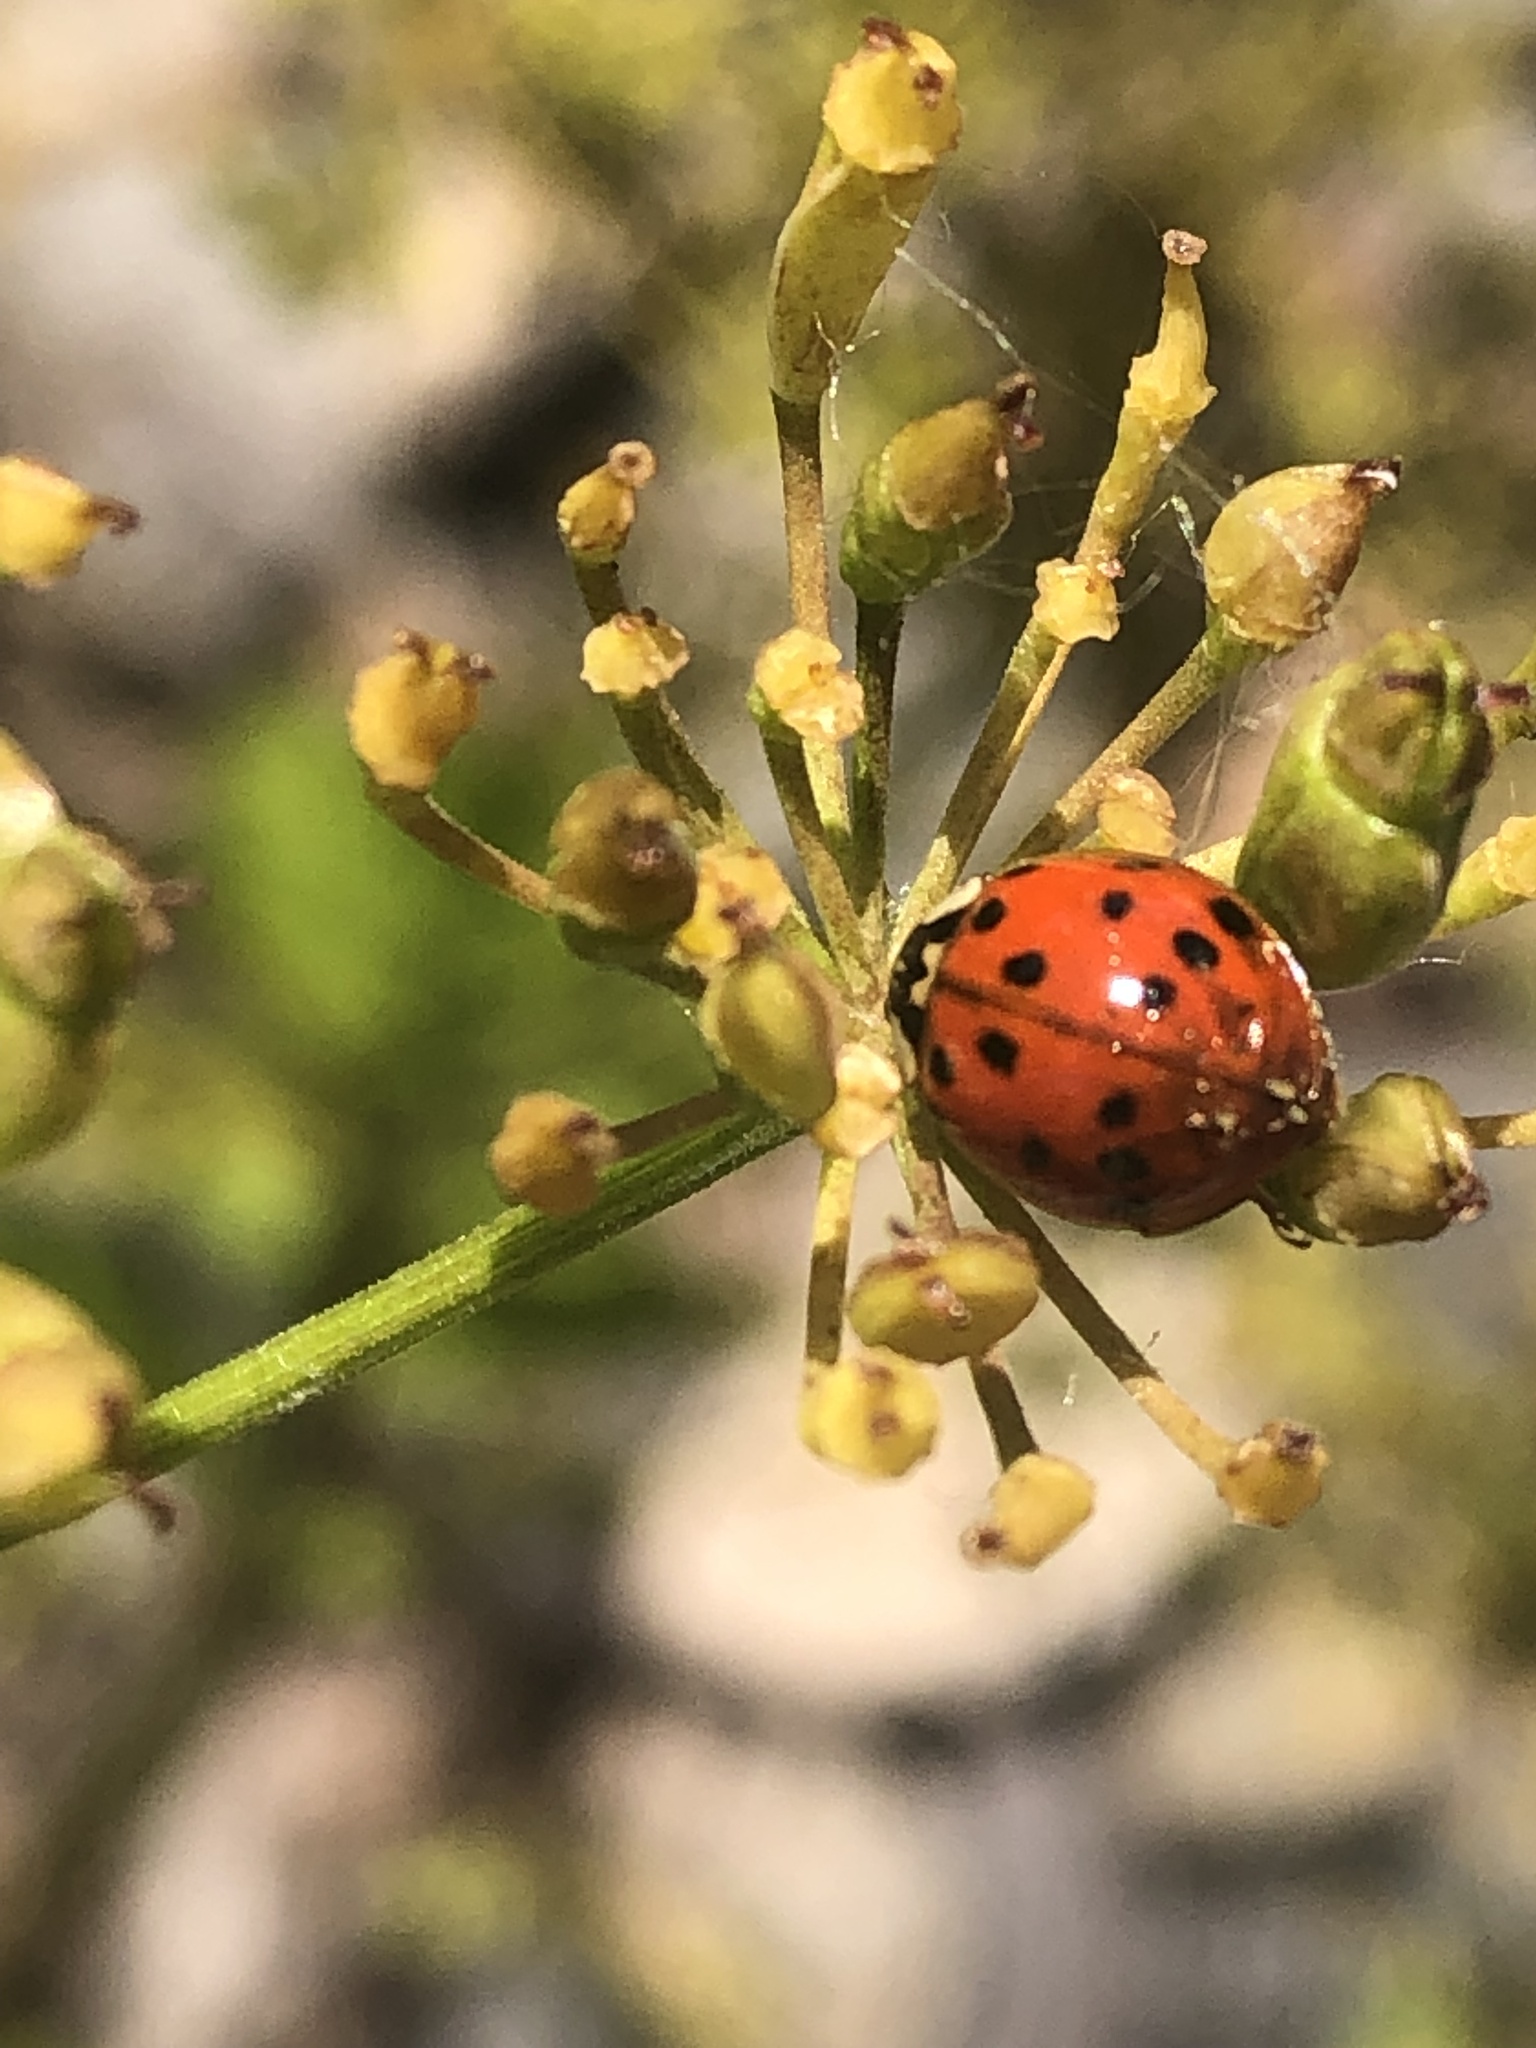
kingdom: Animalia
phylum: Arthropoda
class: Insecta
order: Coleoptera
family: Coccinellidae
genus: Harmonia
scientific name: Harmonia axyridis
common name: Harlequin ladybird
